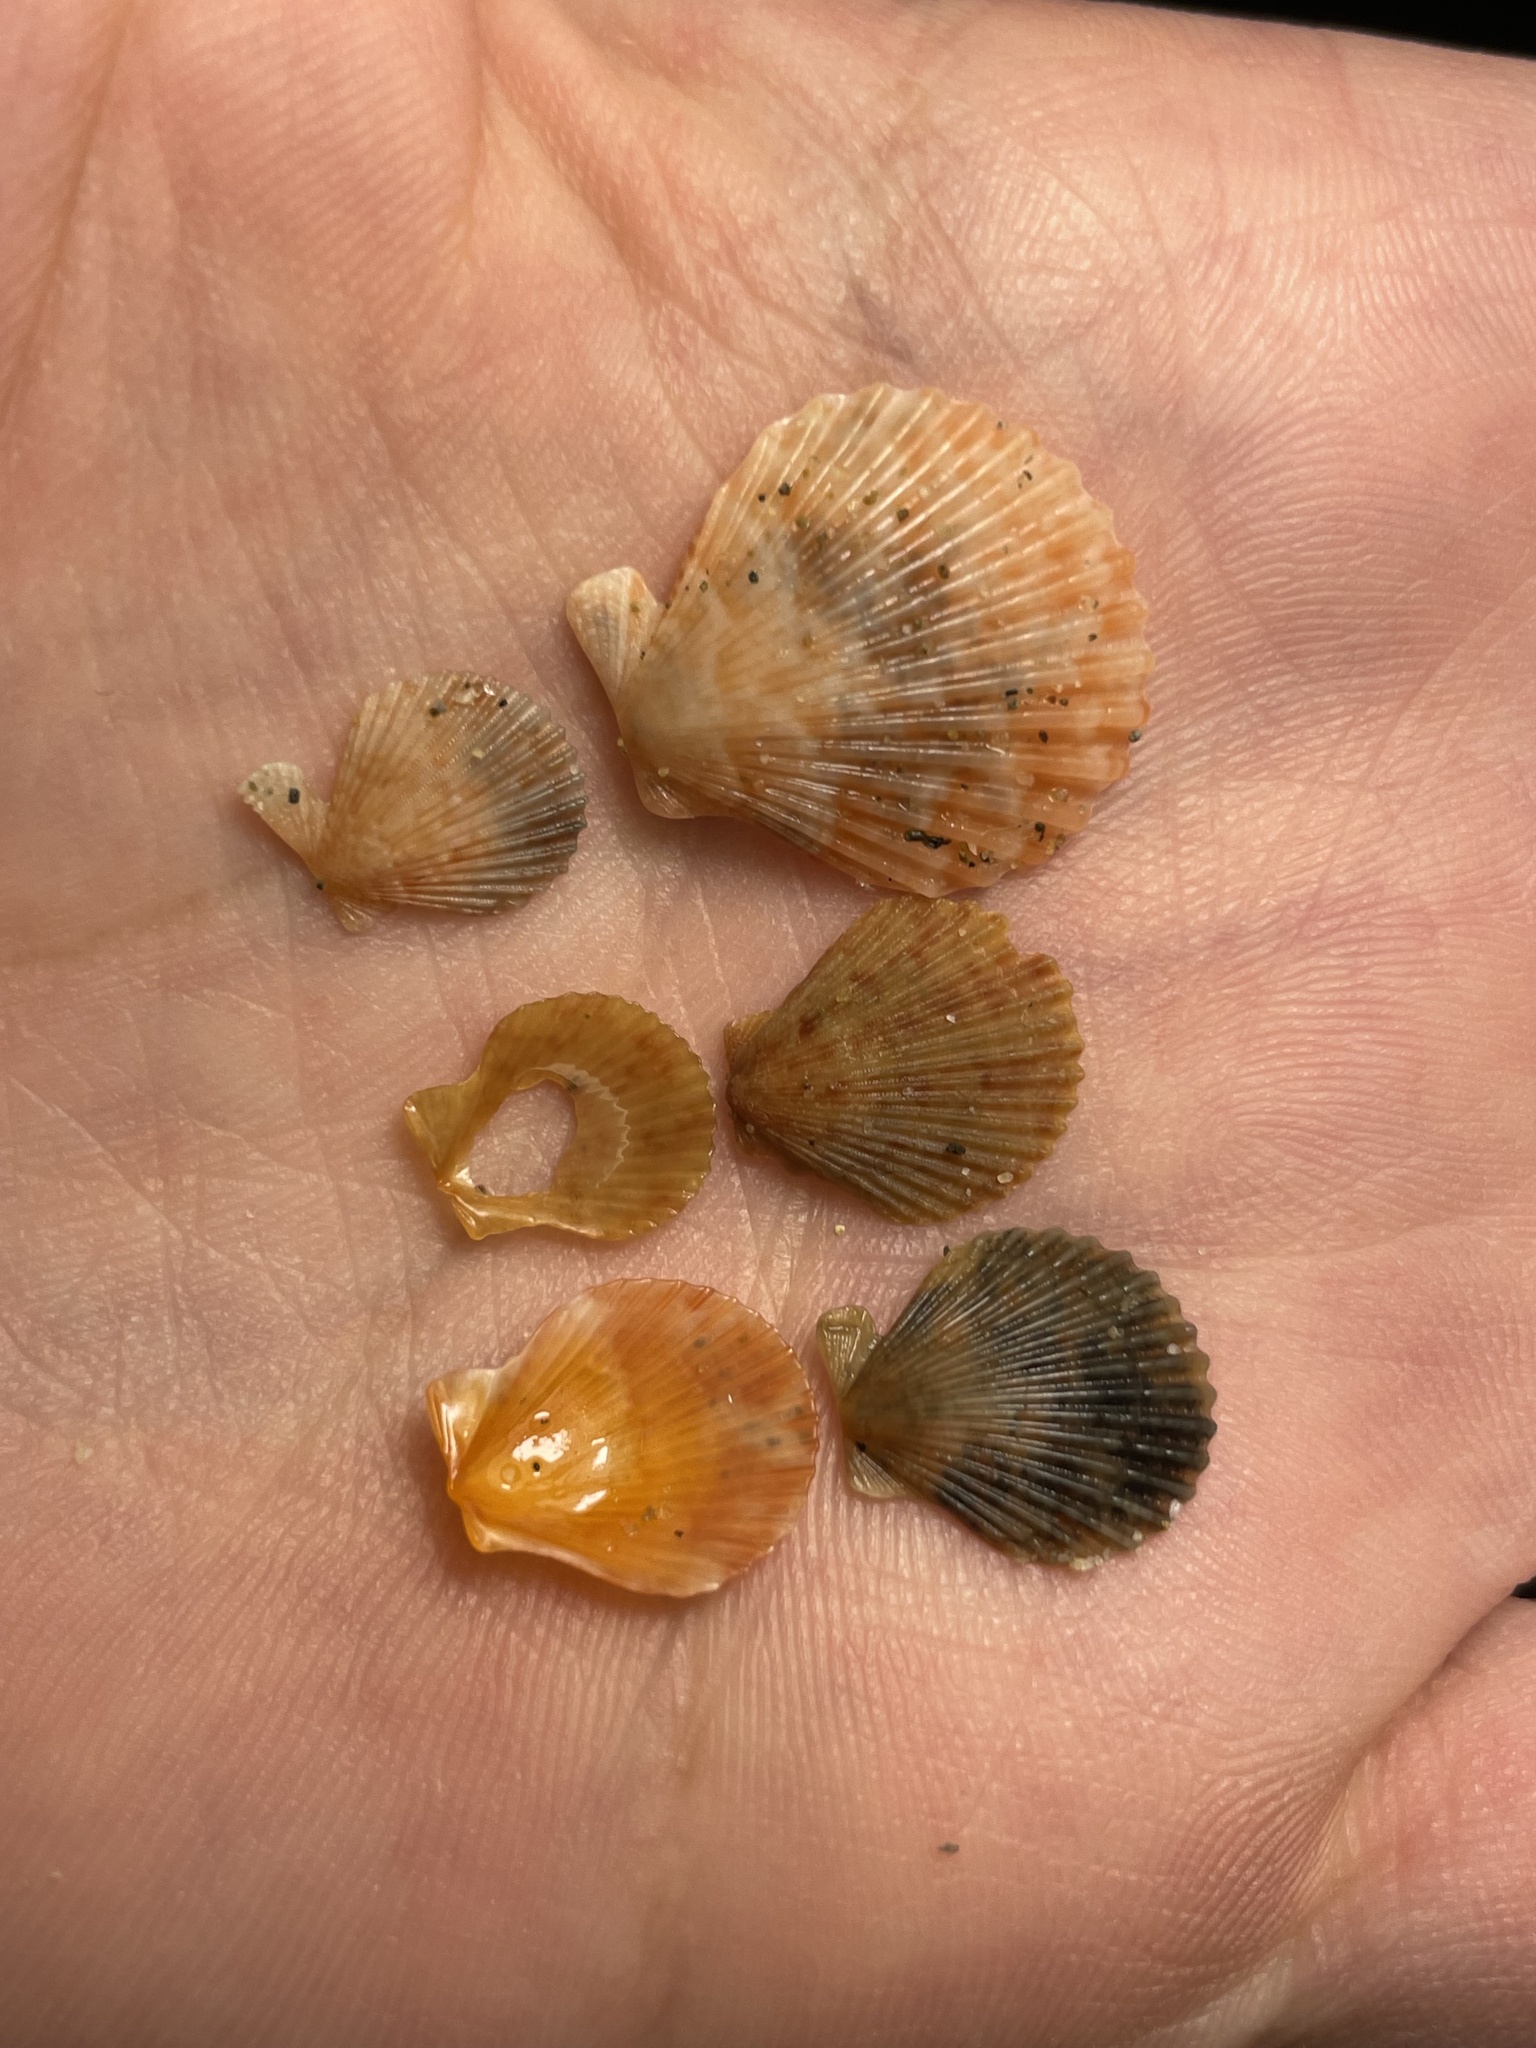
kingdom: Animalia
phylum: Mollusca
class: Bivalvia
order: Pectinida
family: Pectinidae
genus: Mimachlamys
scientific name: Mimachlamys varia
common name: Variegated scallop
